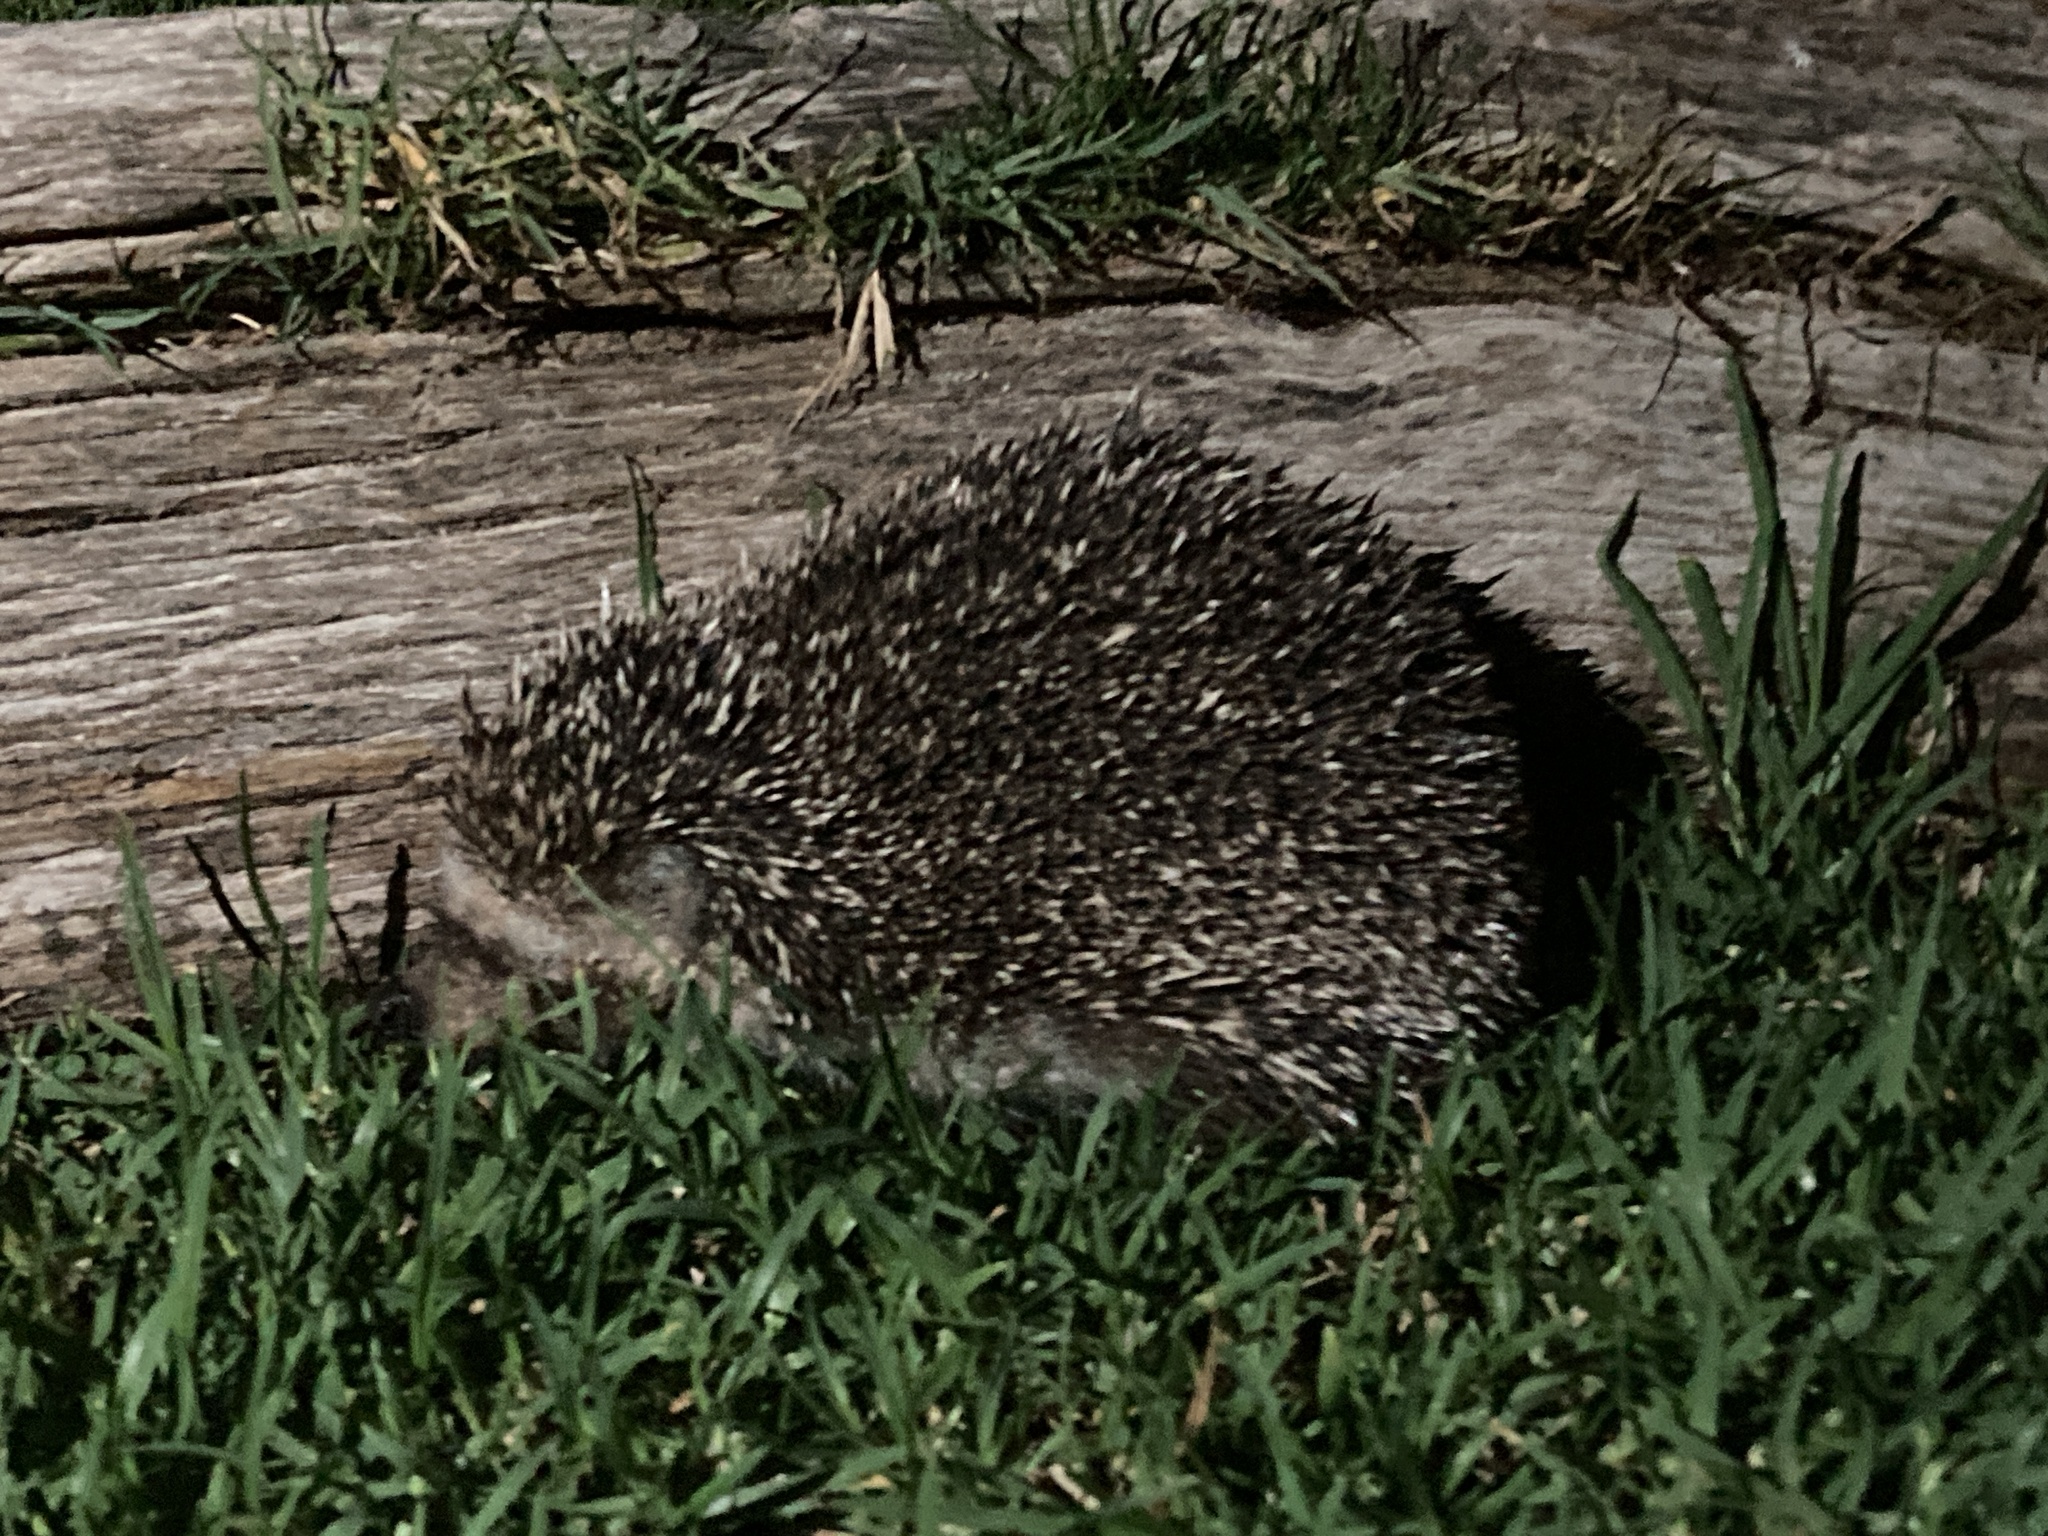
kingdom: Animalia
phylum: Chordata
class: Mammalia
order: Erinaceomorpha
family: Erinaceidae
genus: Atelerix
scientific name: Atelerix algirus
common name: North african hedgehog
